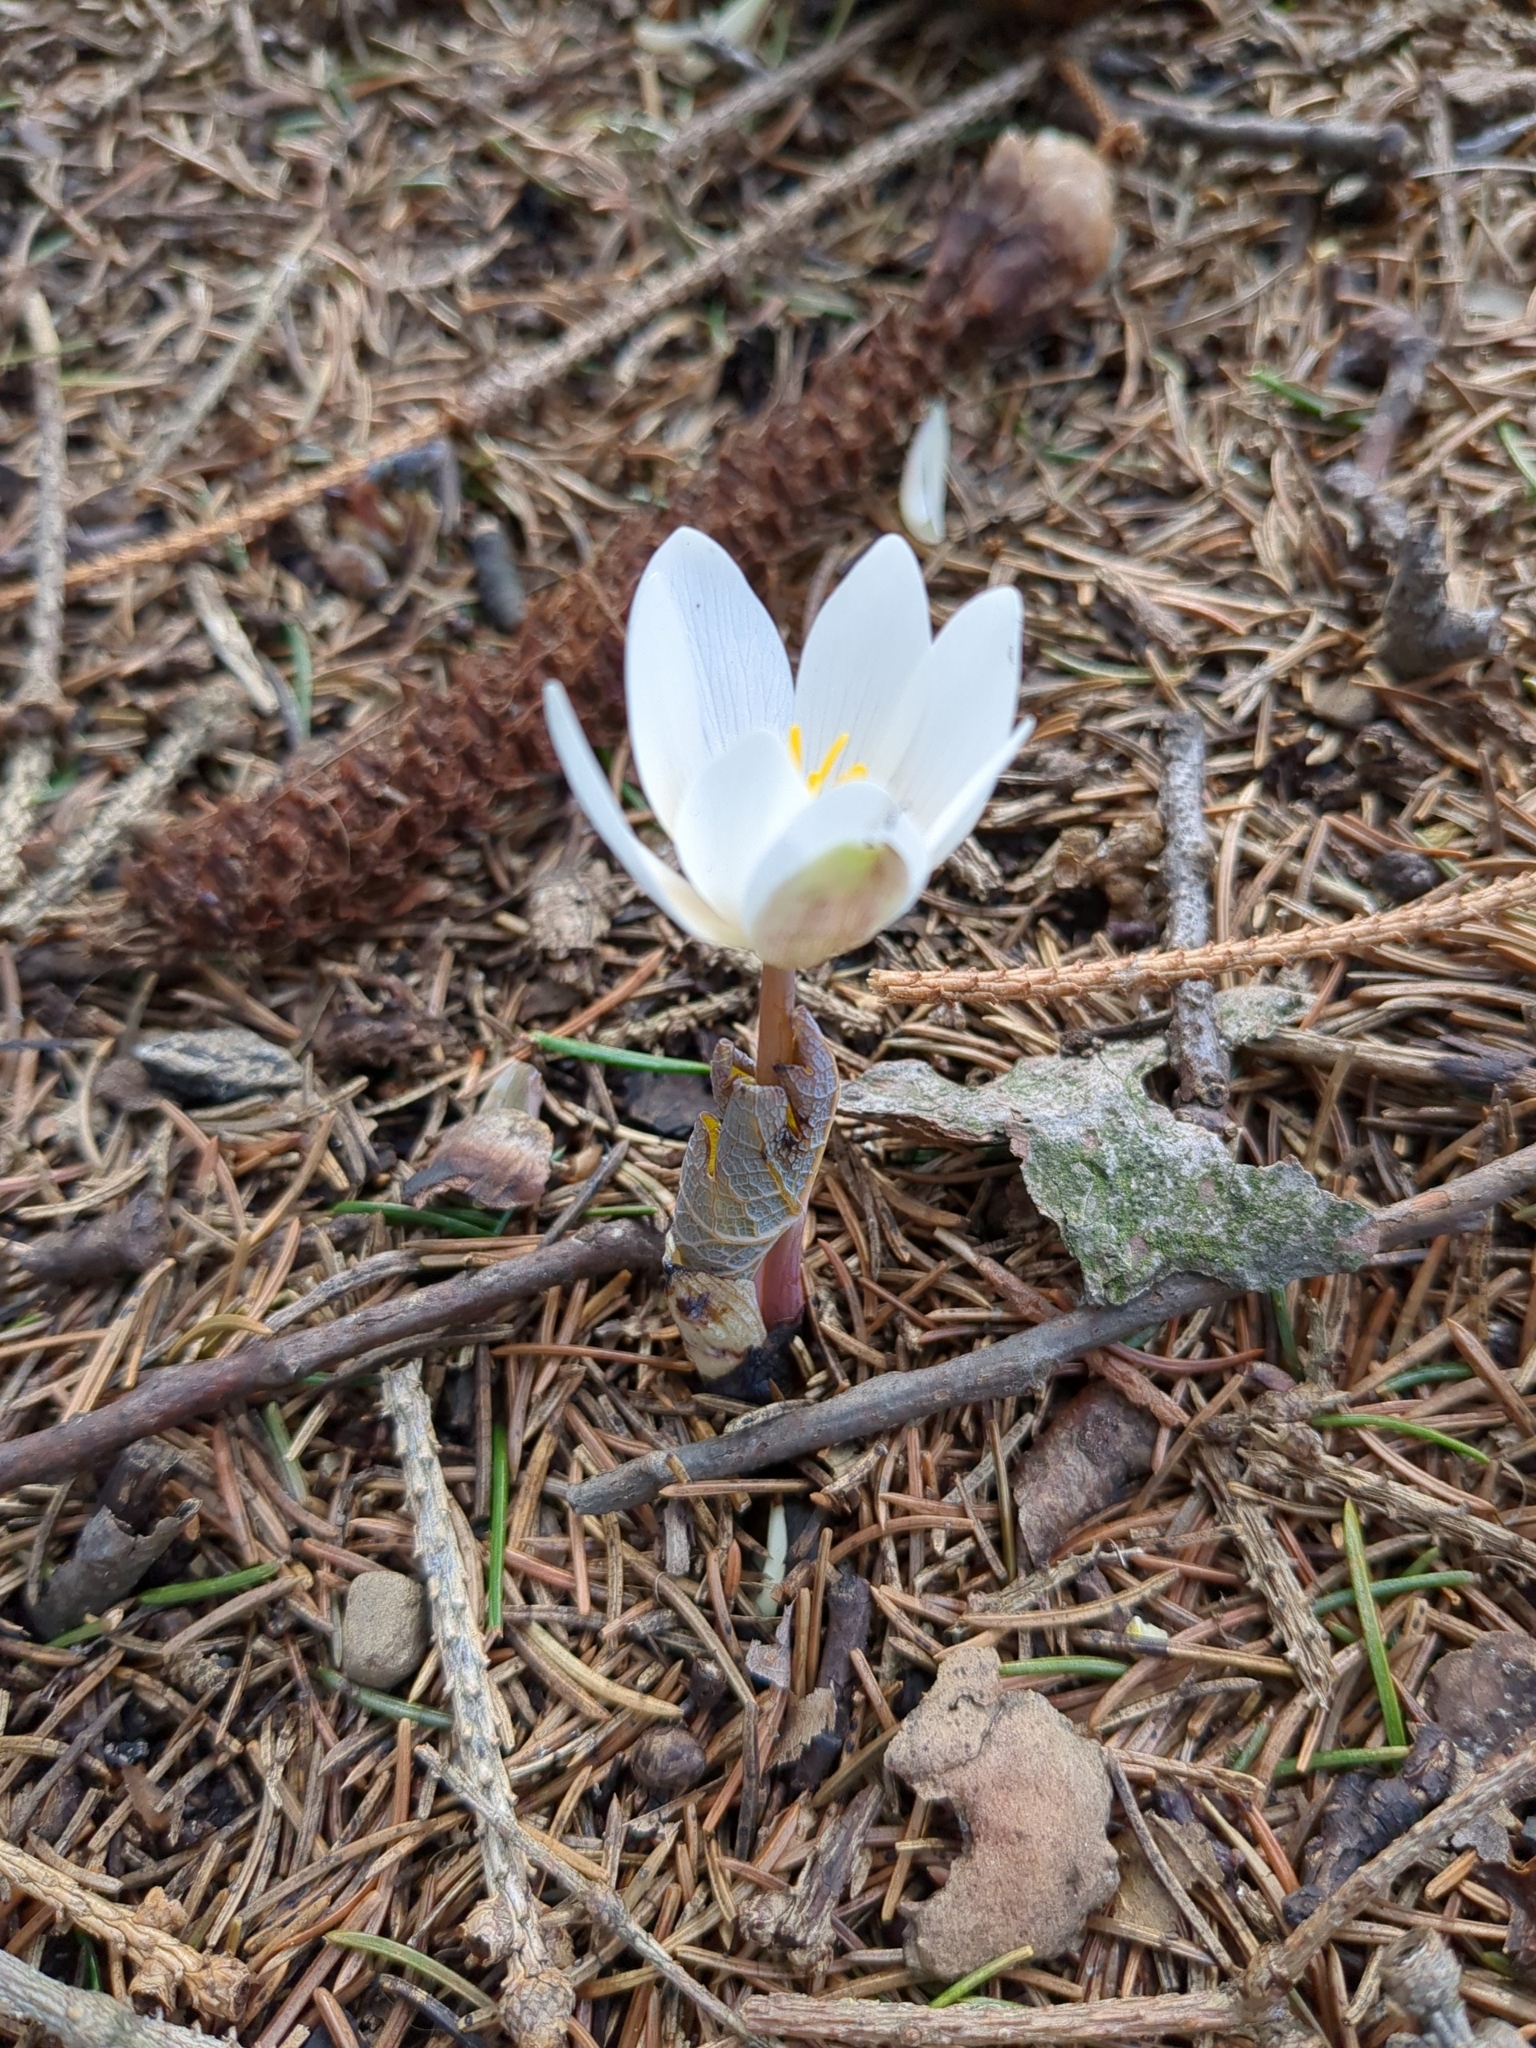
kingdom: Plantae
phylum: Tracheophyta
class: Magnoliopsida
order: Ranunculales
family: Papaveraceae
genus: Sanguinaria
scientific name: Sanguinaria canadensis
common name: Bloodroot
